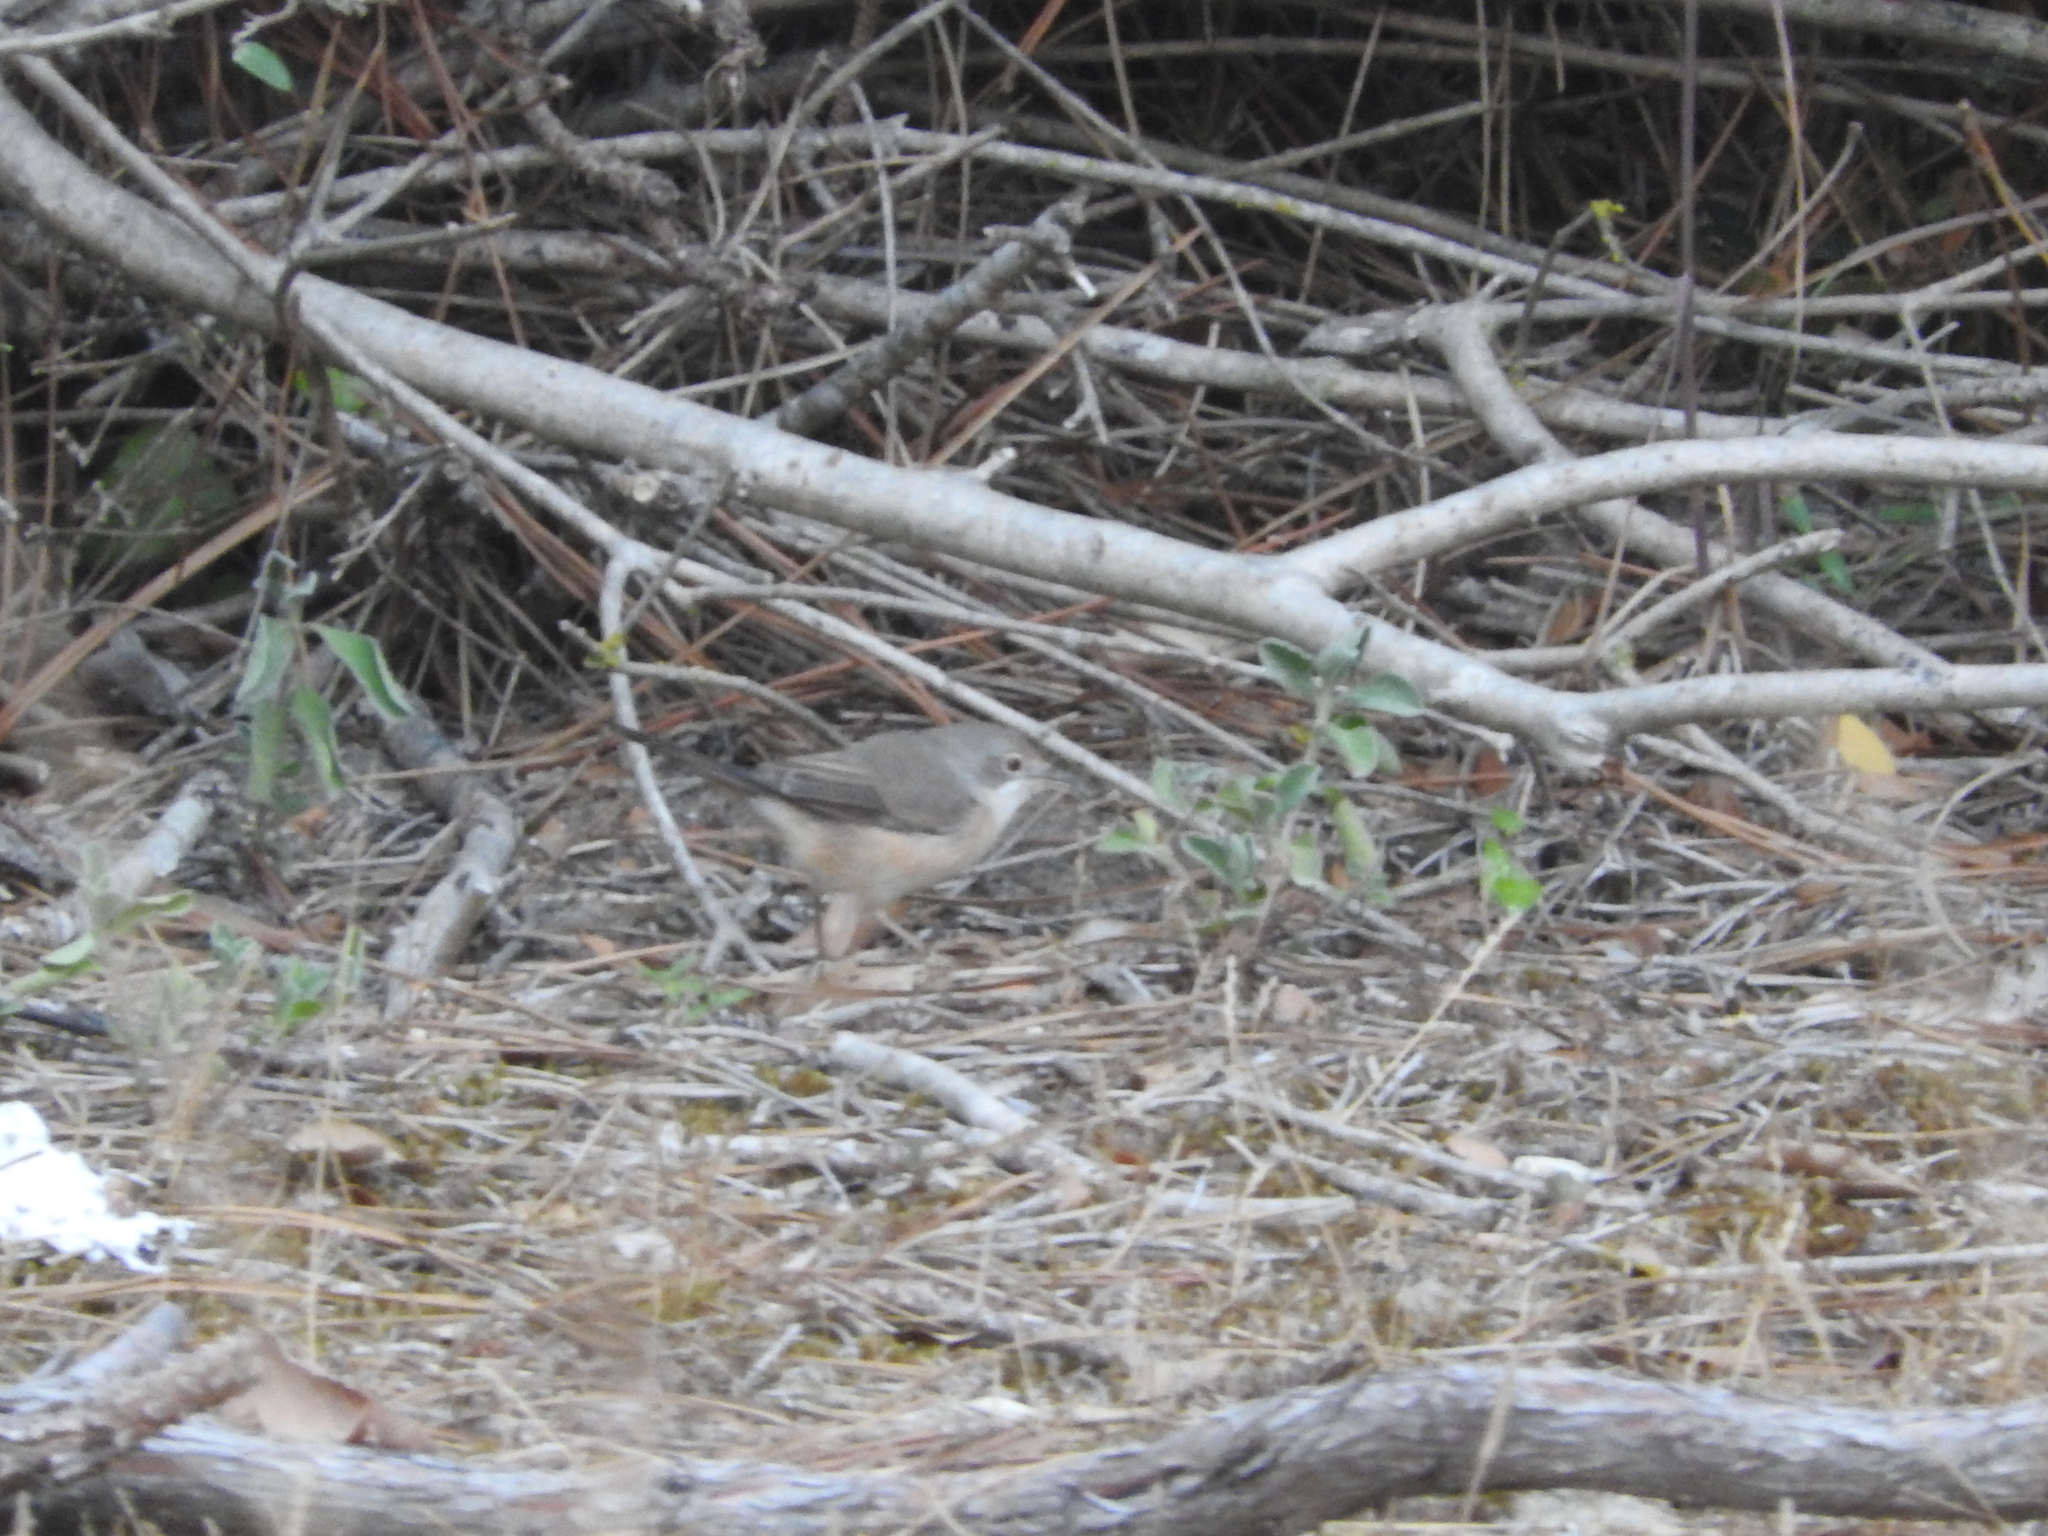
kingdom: Animalia
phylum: Chordata
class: Aves
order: Passeriformes
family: Sylviidae
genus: Sylvia
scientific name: Sylvia borin
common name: Garden warbler
